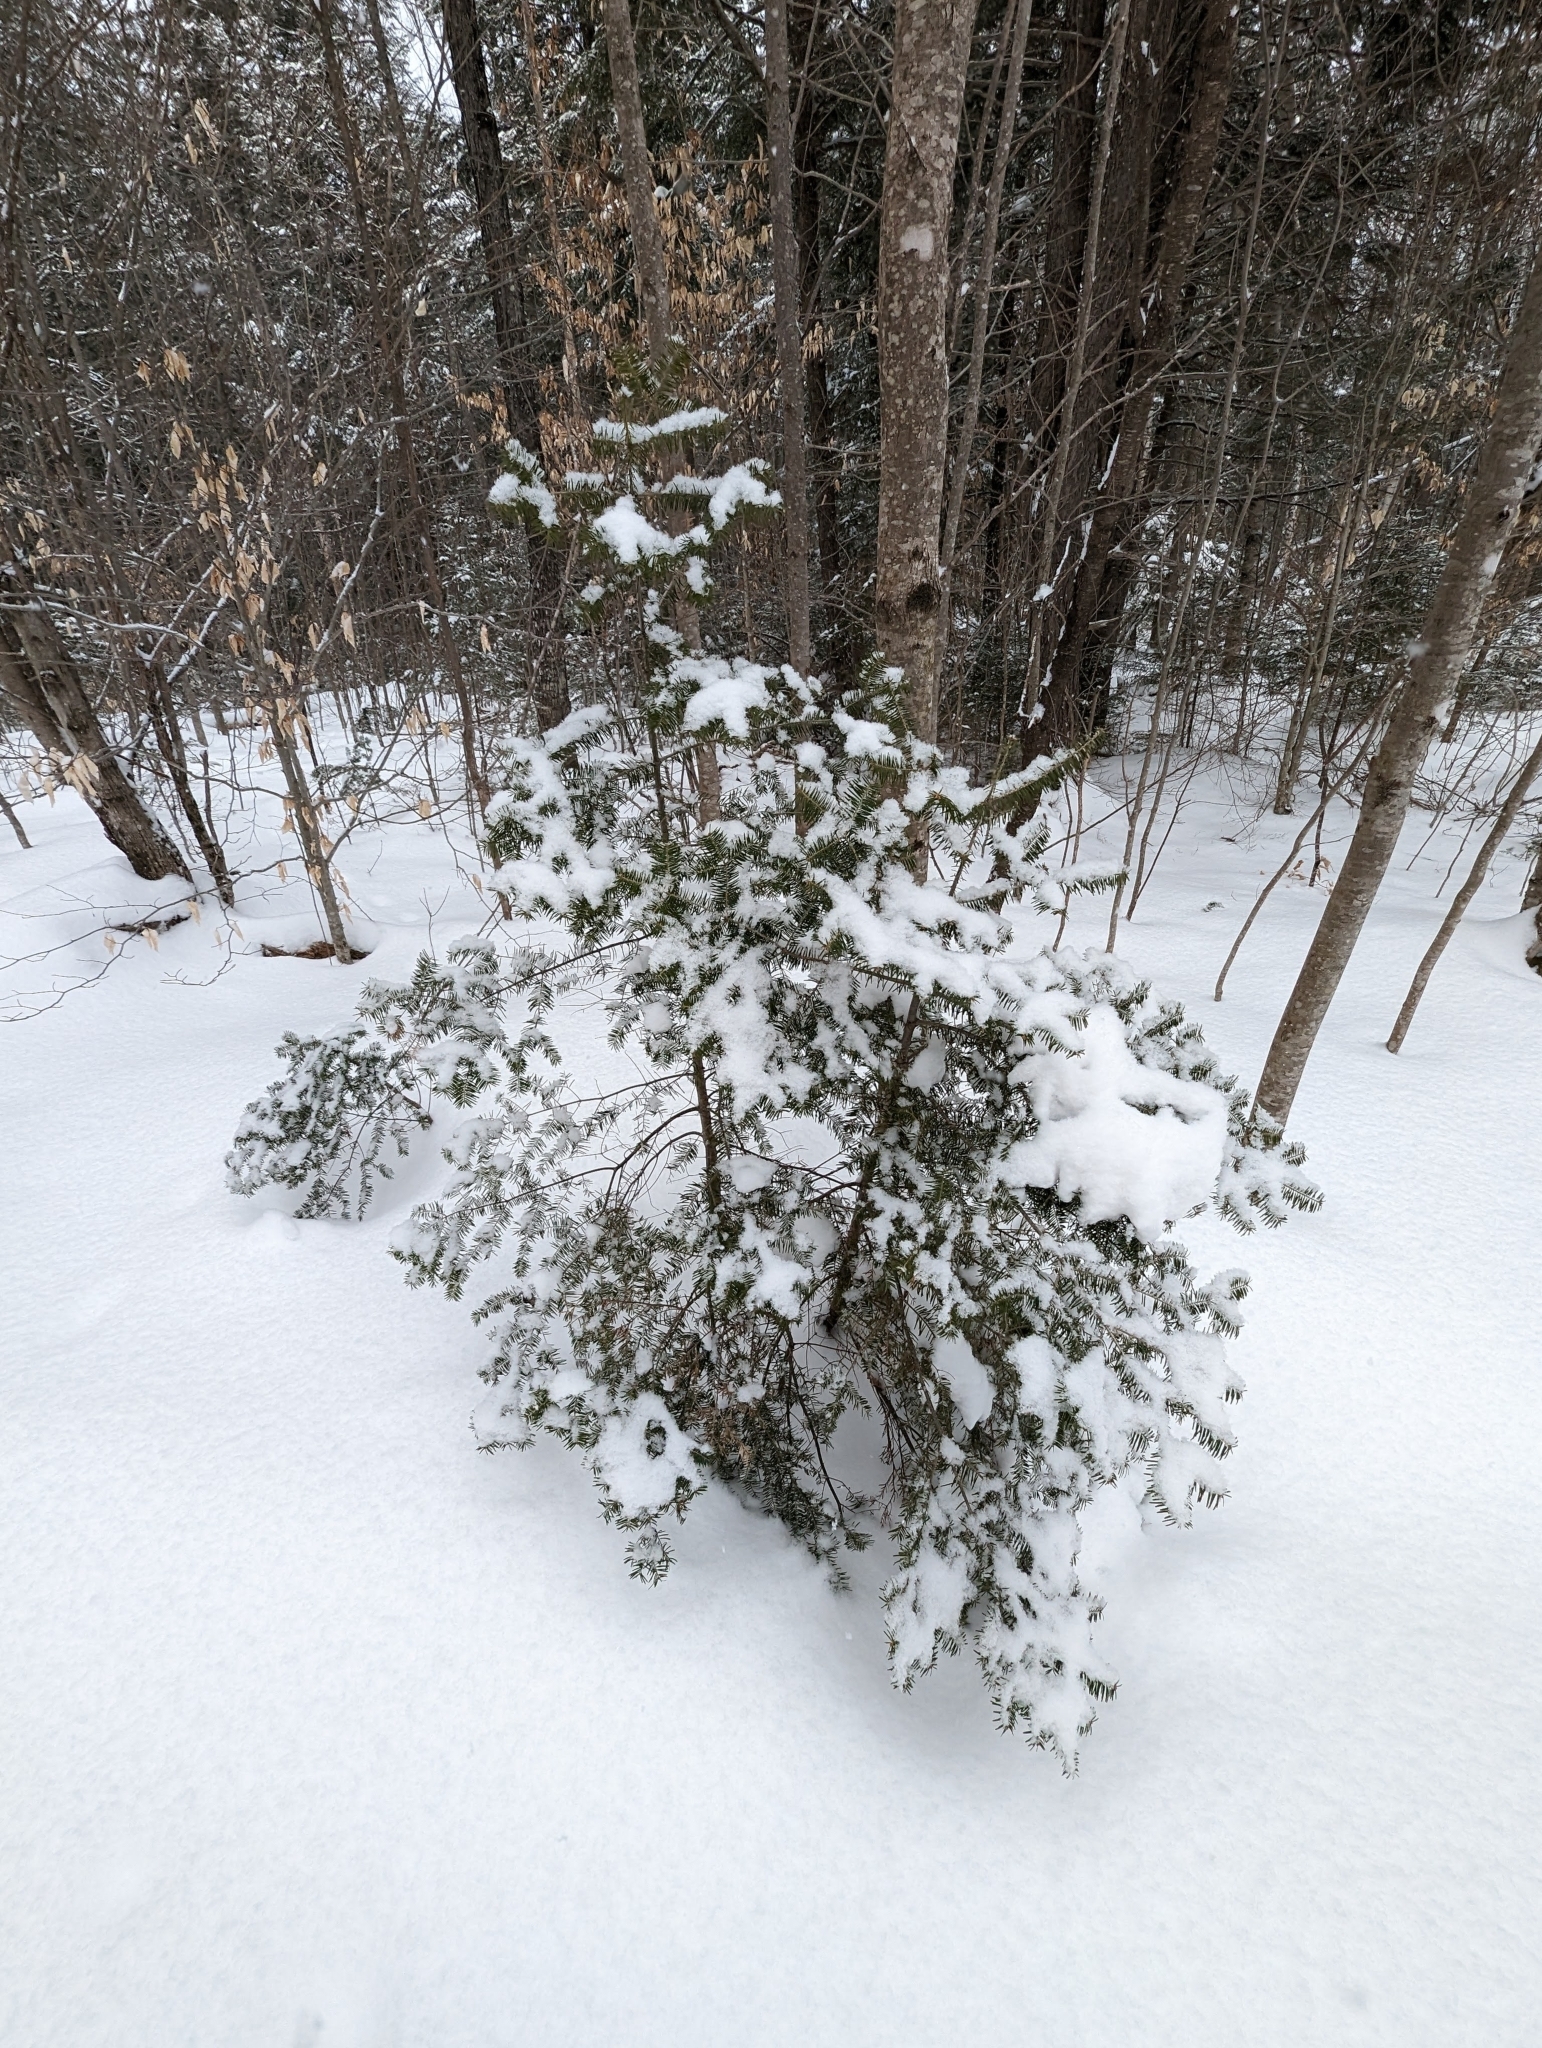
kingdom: Plantae
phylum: Tracheophyta
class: Pinopsida
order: Pinales
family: Pinaceae
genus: Abies
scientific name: Abies balsamea
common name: Balsam fir
